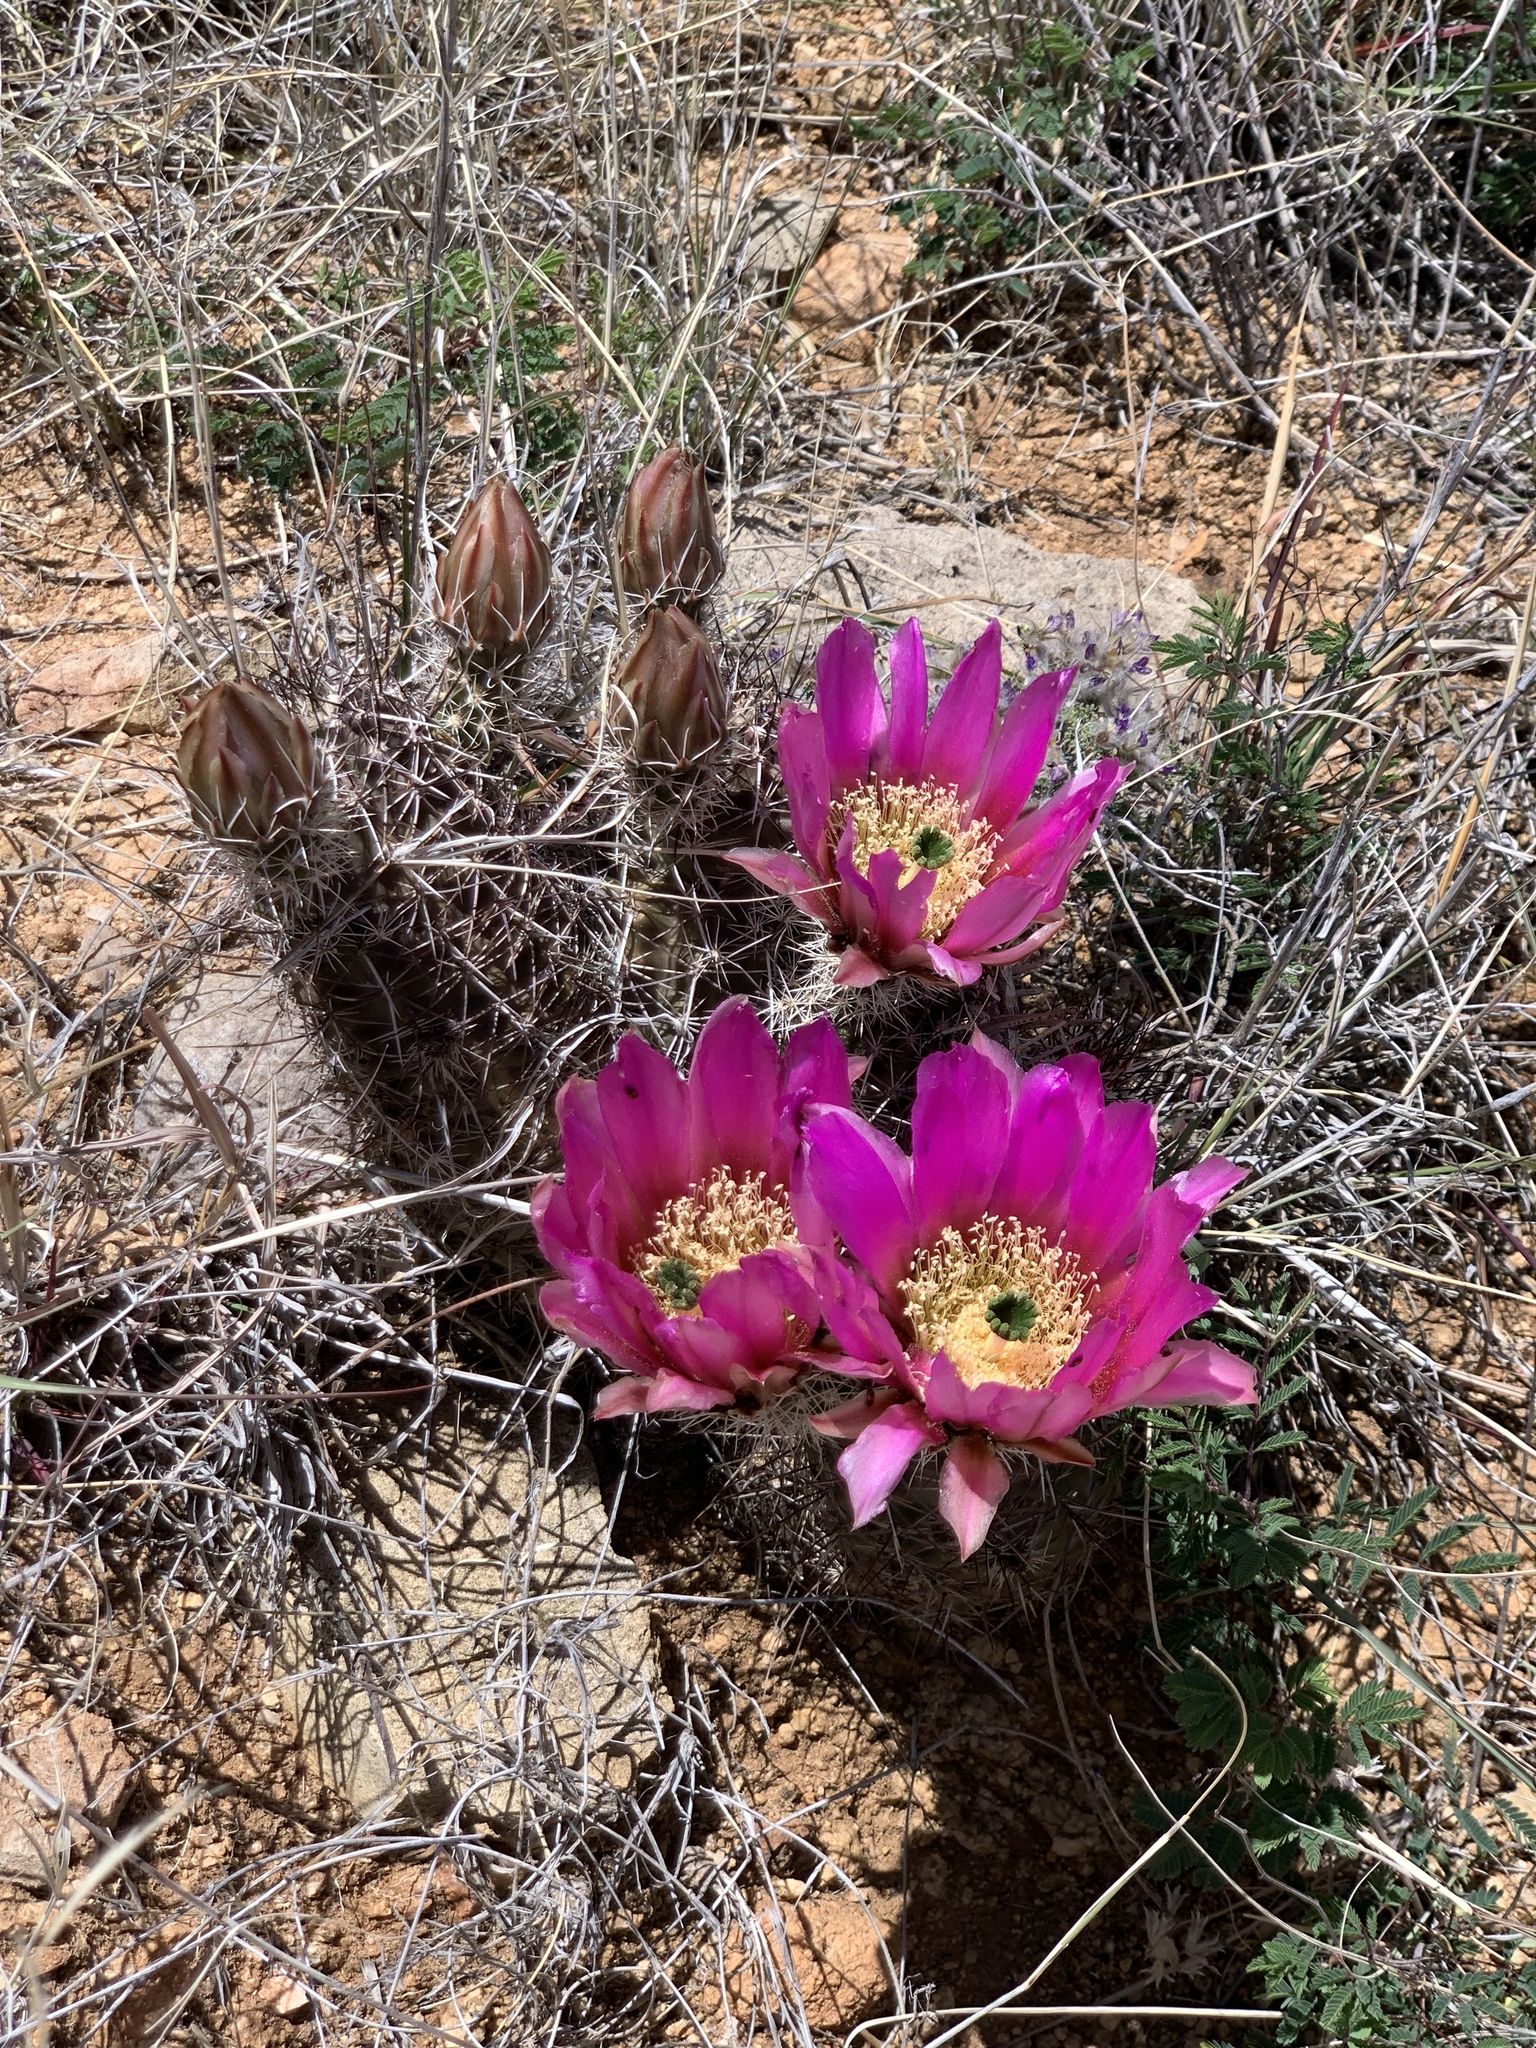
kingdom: Plantae
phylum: Tracheophyta
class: Magnoliopsida
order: Caryophyllales
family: Cactaceae
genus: Echinocereus
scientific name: Echinocereus fendleri
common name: Fendler's hedgehog cactus
